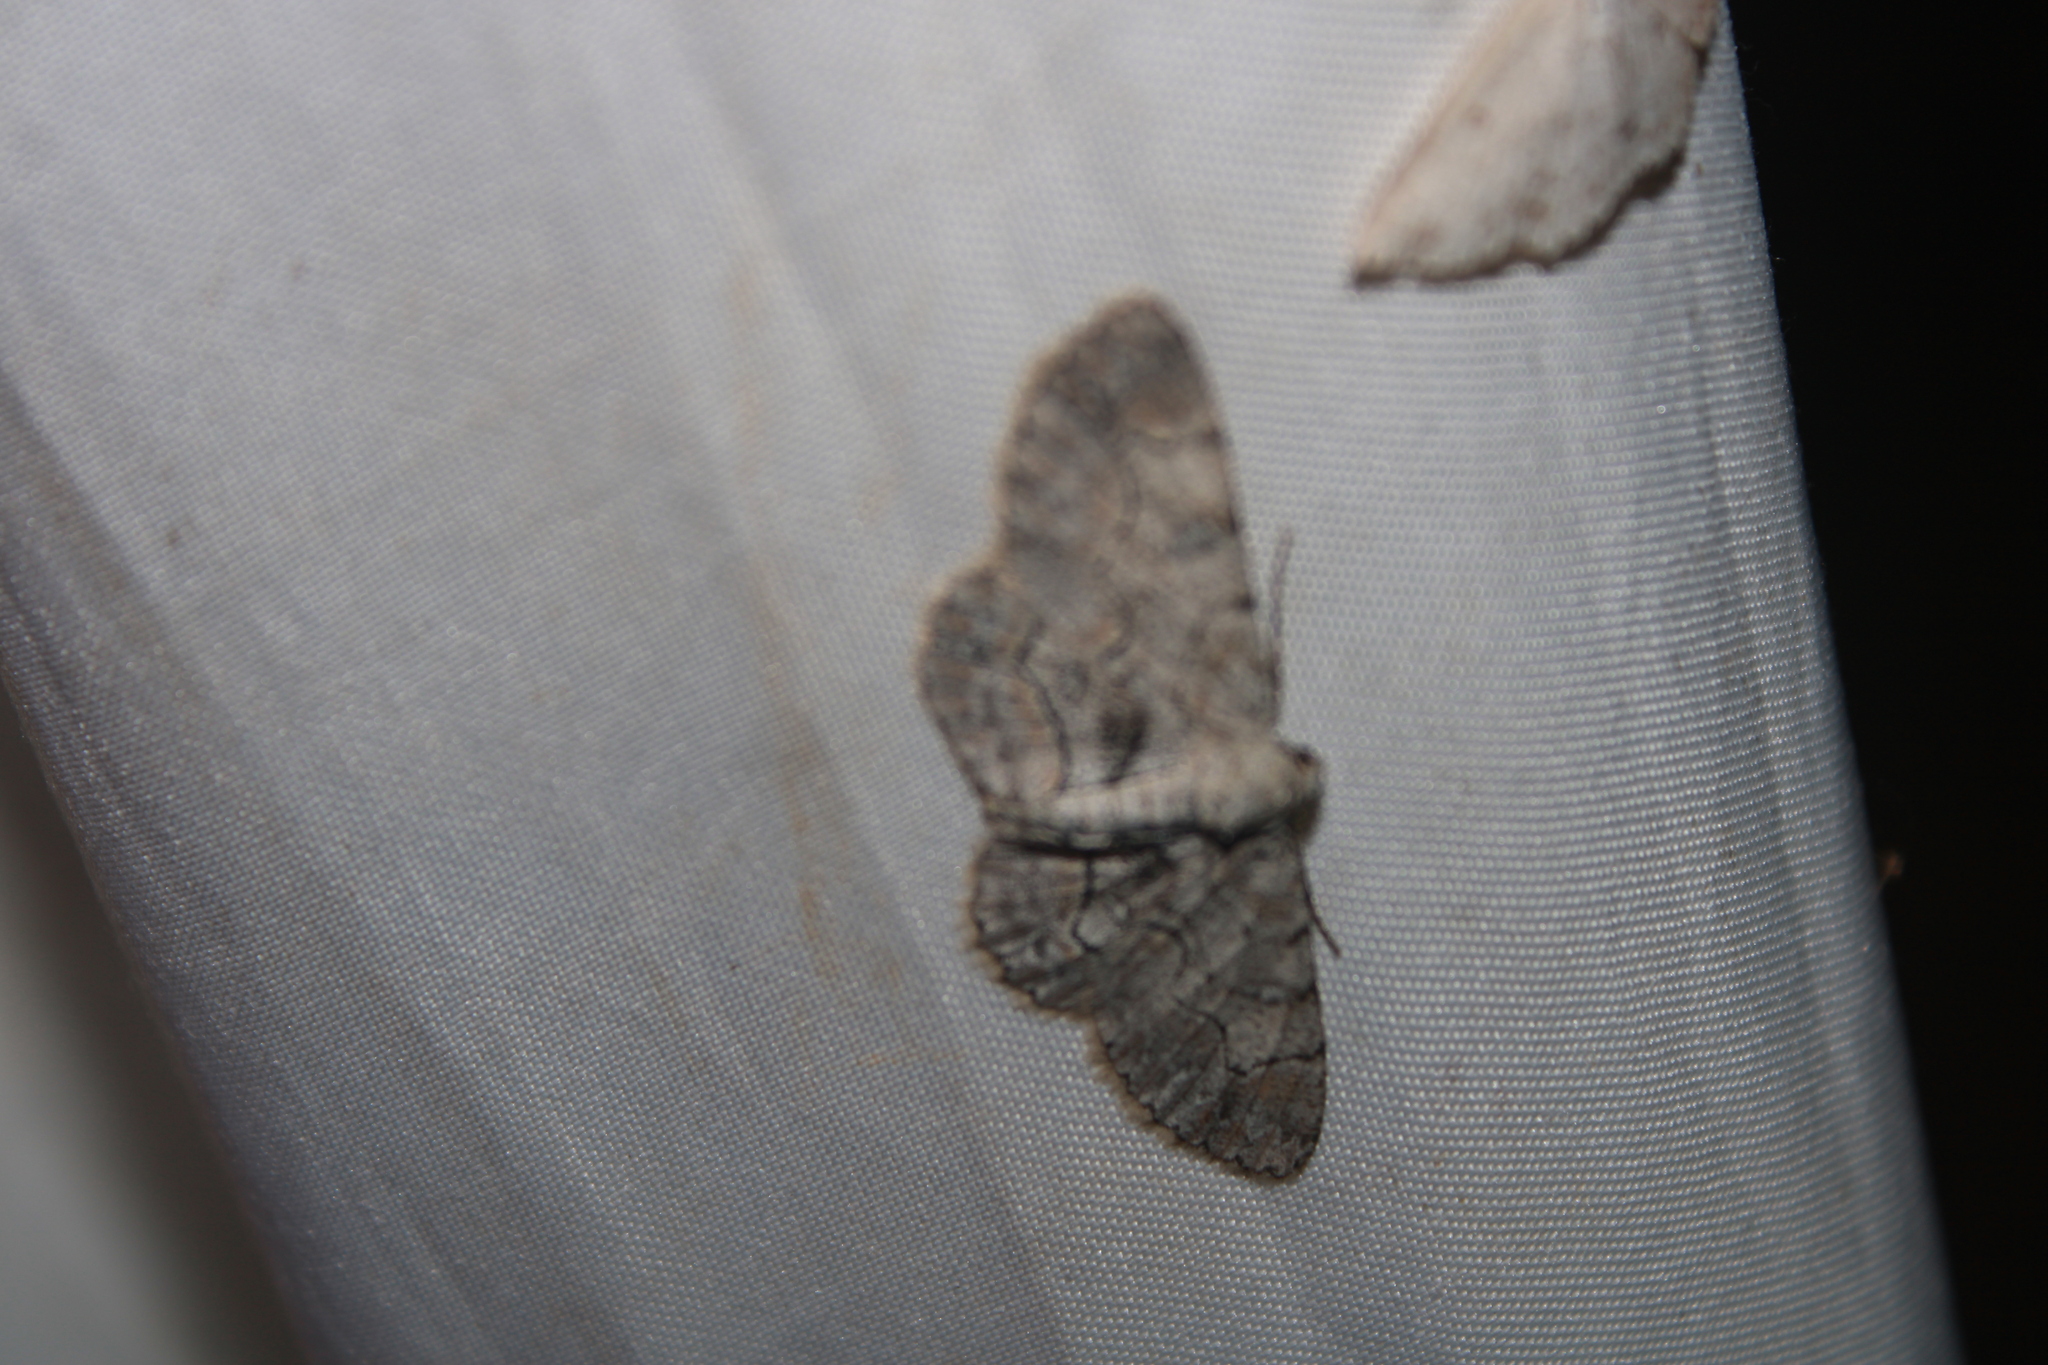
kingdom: Animalia
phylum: Arthropoda
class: Insecta
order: Lepidoptera
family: Geometridae
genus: Iridopsis
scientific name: Iridopsis larvaria
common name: Bent-line gray
